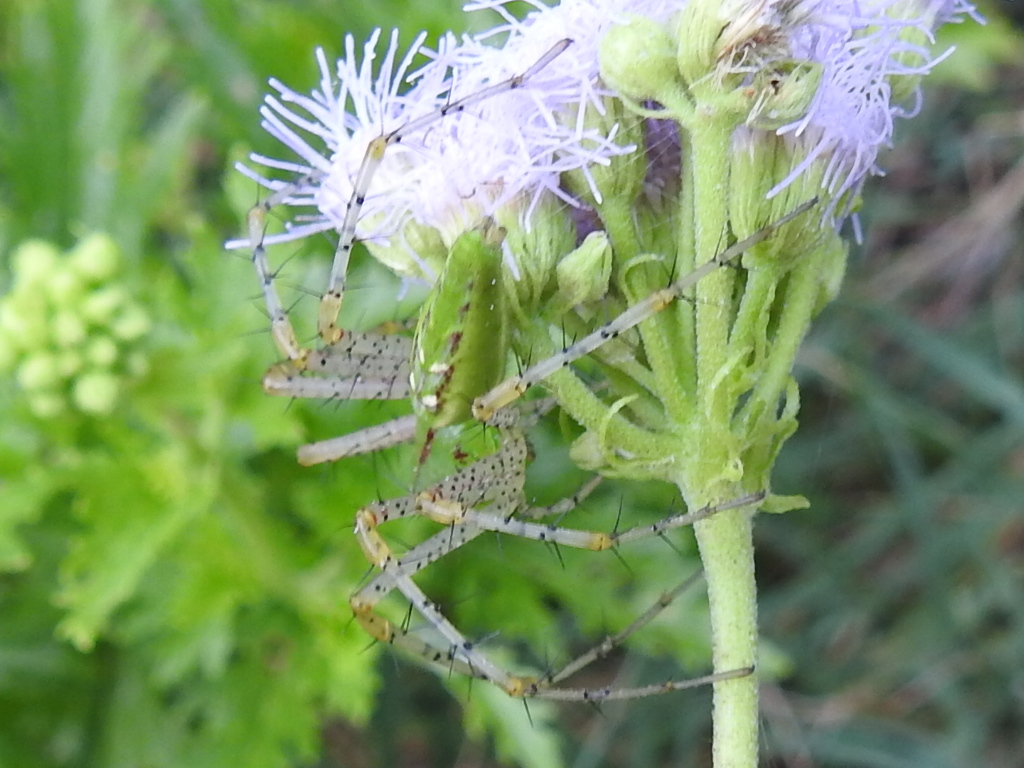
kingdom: Animalia
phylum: Arthropoda
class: Arachnida
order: Araneae
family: Oxyopidae
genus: Peucetia
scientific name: Peucetia viridans
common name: Lynx spiders
